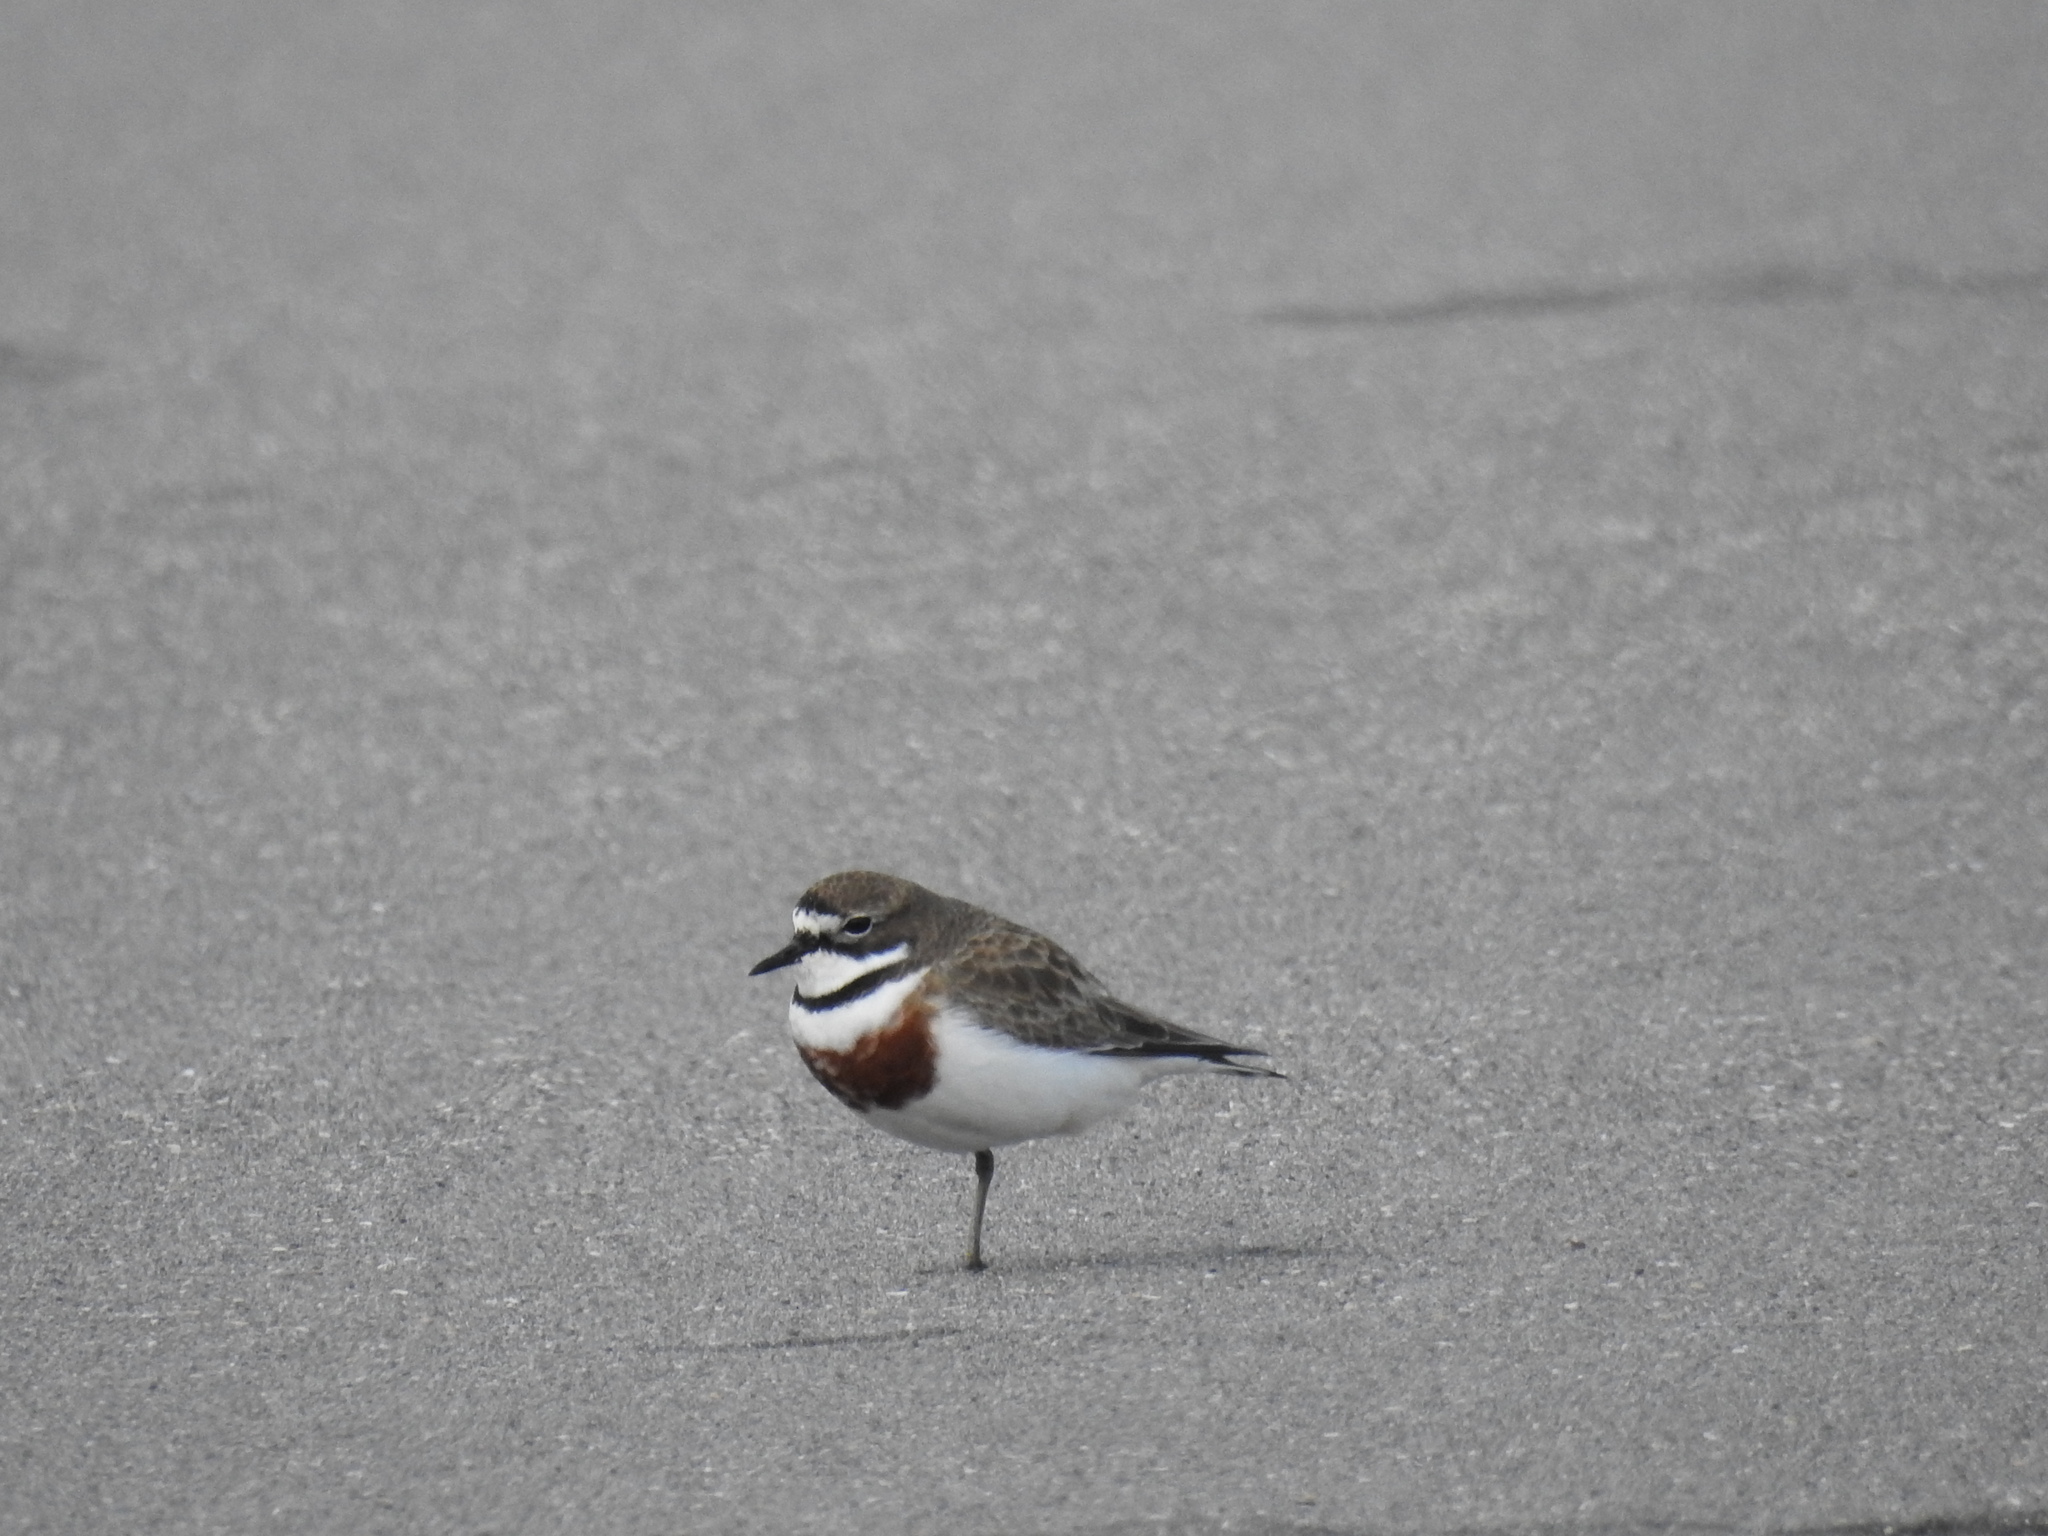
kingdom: Animalia
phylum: Chordata
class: Aves
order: Charadriiformes
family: Charadriidae
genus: Anarhynchus
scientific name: Anarhynchus
